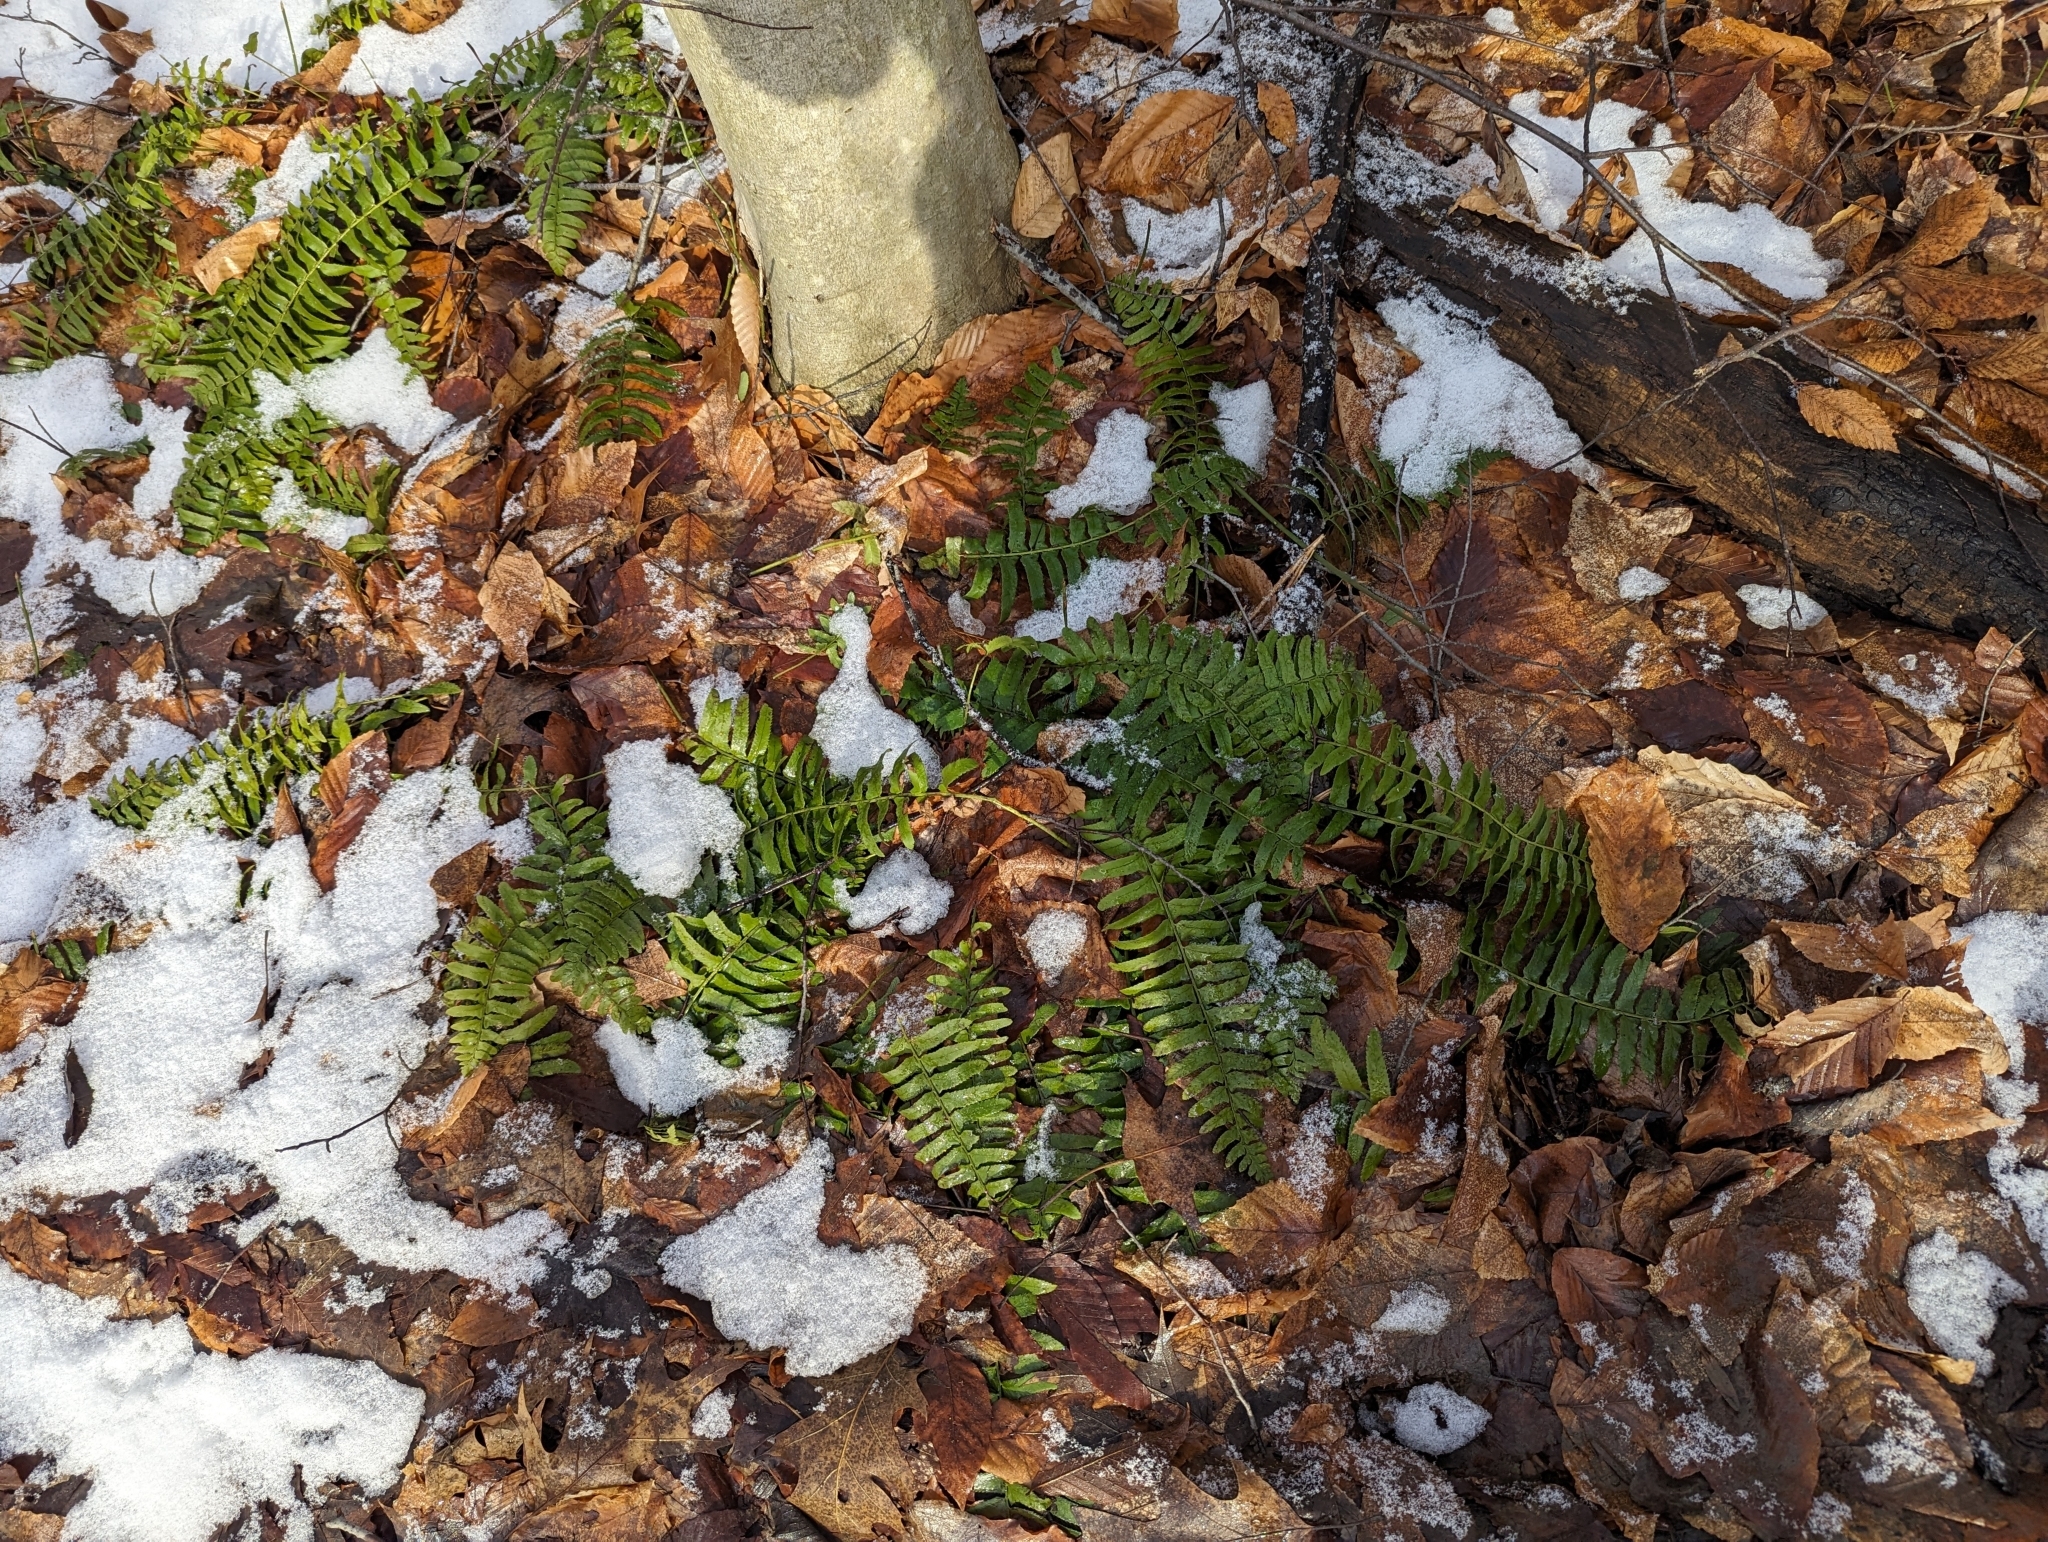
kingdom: Plantae
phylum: Tracheophyta
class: Polypodiopsida
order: Polypodiales
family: Dryopteridaceae
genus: Polystichum
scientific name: Polystichum acrostichoides
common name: Christmas fern
